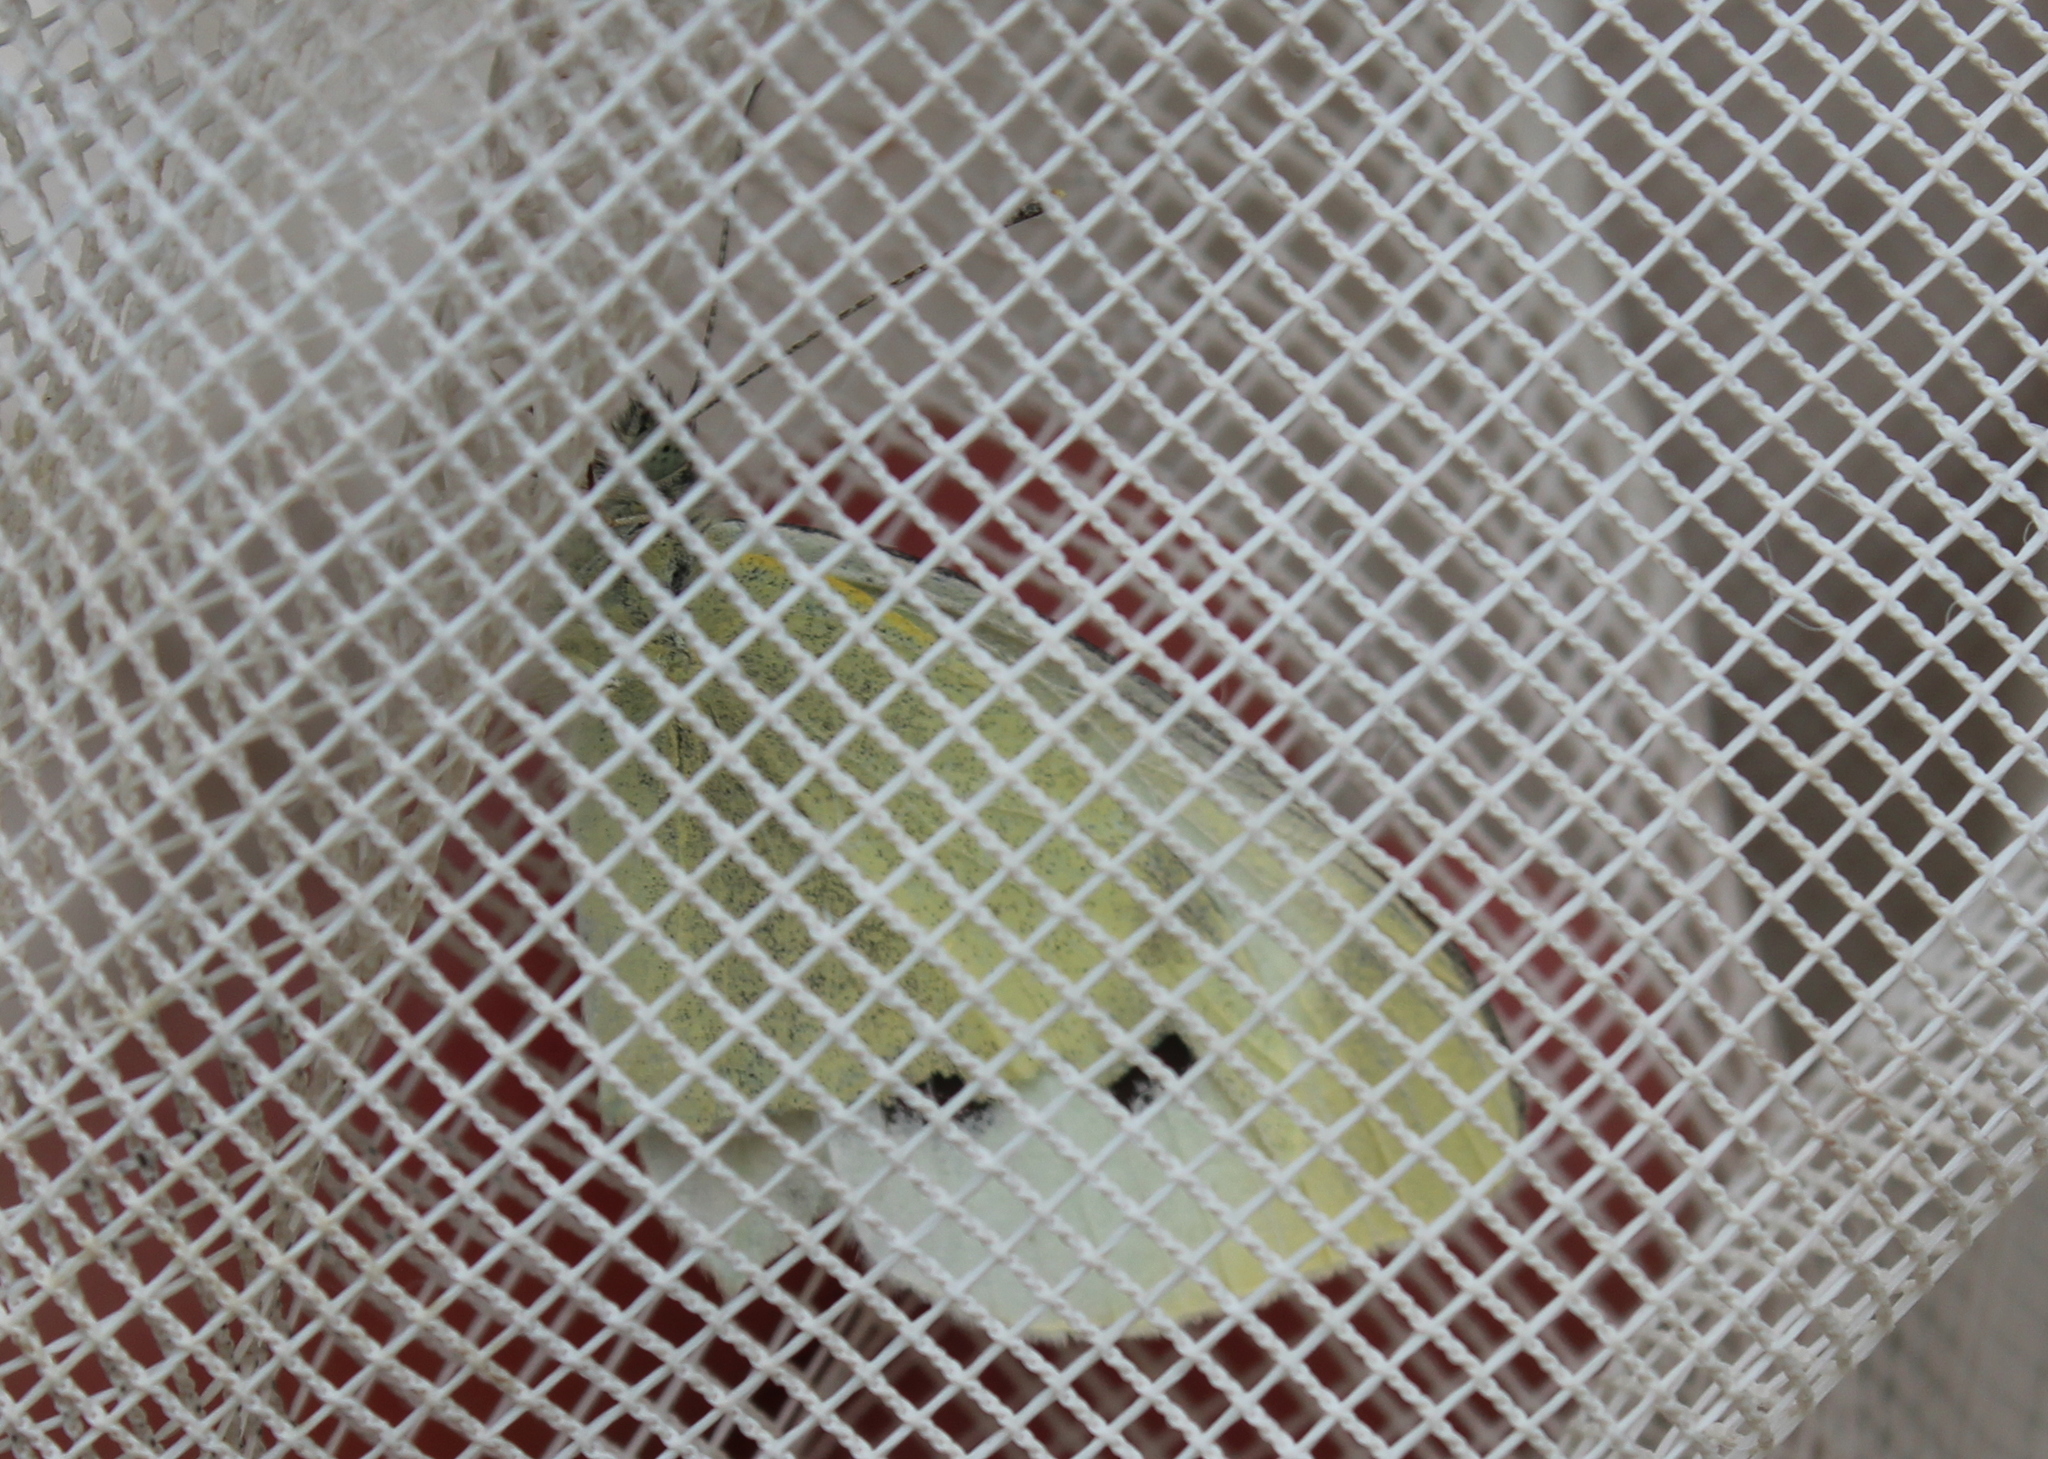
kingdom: Animalia
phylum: Arthropoda
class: Insecta
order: Lepidoptera
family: Pieridae
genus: Pieris
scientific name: Pieris rapae
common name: Small white
